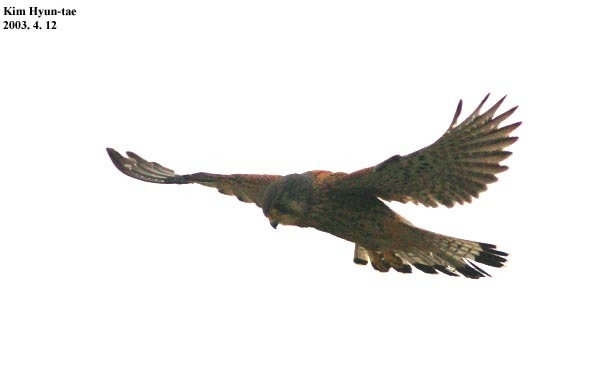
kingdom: Animalia
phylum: Chordata
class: Aves
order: Falconiformes
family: Falconidae
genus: Falco
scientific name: Falco tinnunculus
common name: Common kestrel
